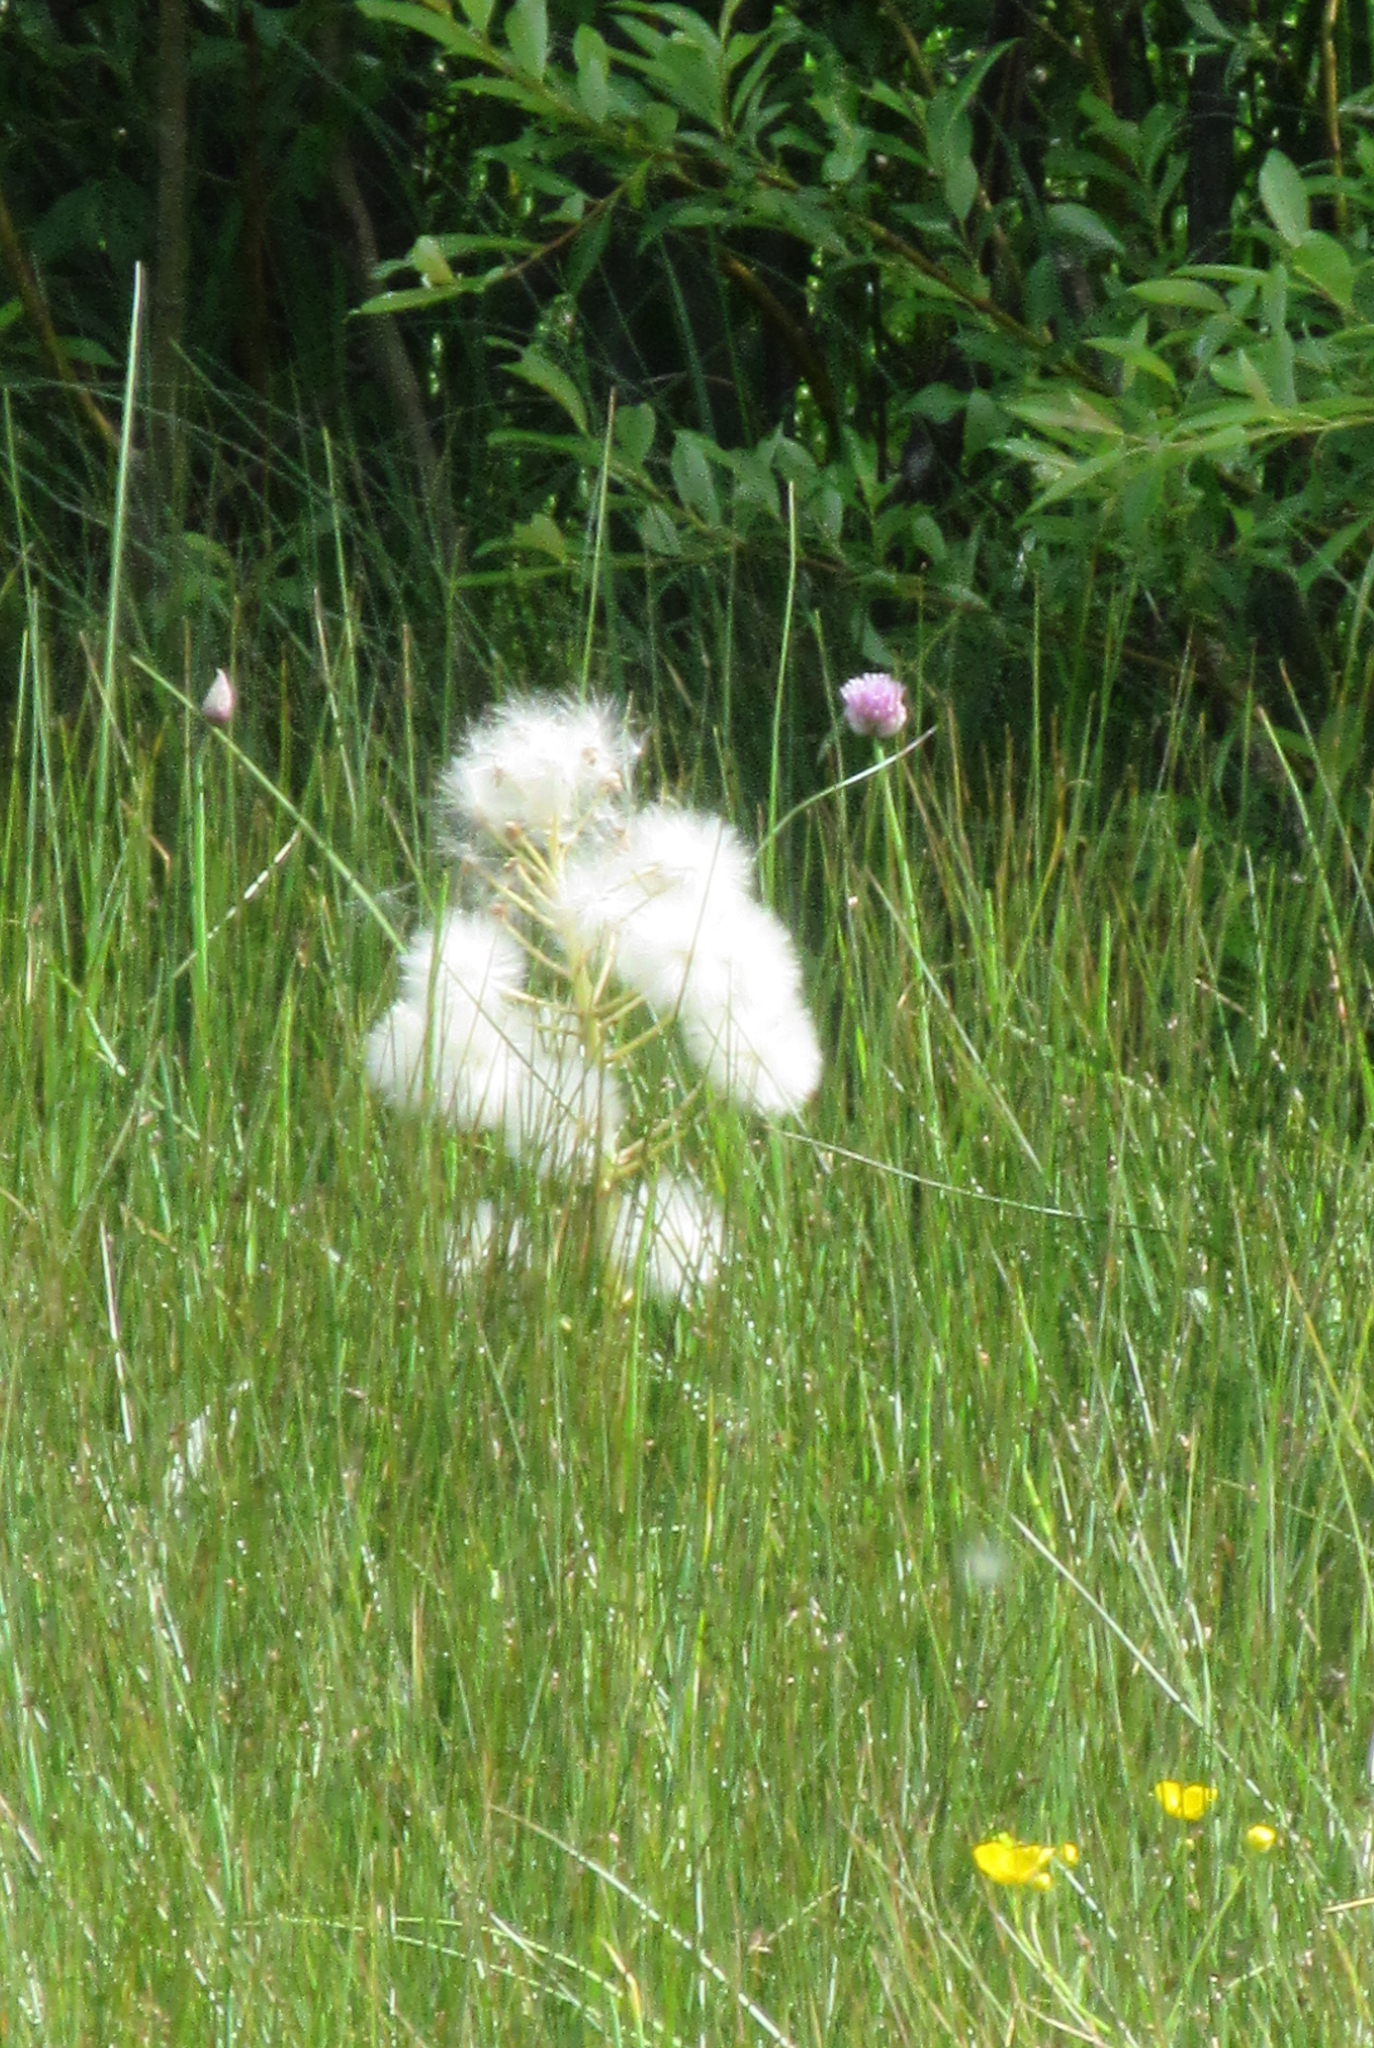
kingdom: Plantae
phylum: Tracheophyta
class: Magnoliopsida
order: Asterales
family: Asteraceae
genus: Petasites
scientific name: Petasites frigidus
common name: Arctic butterbur
